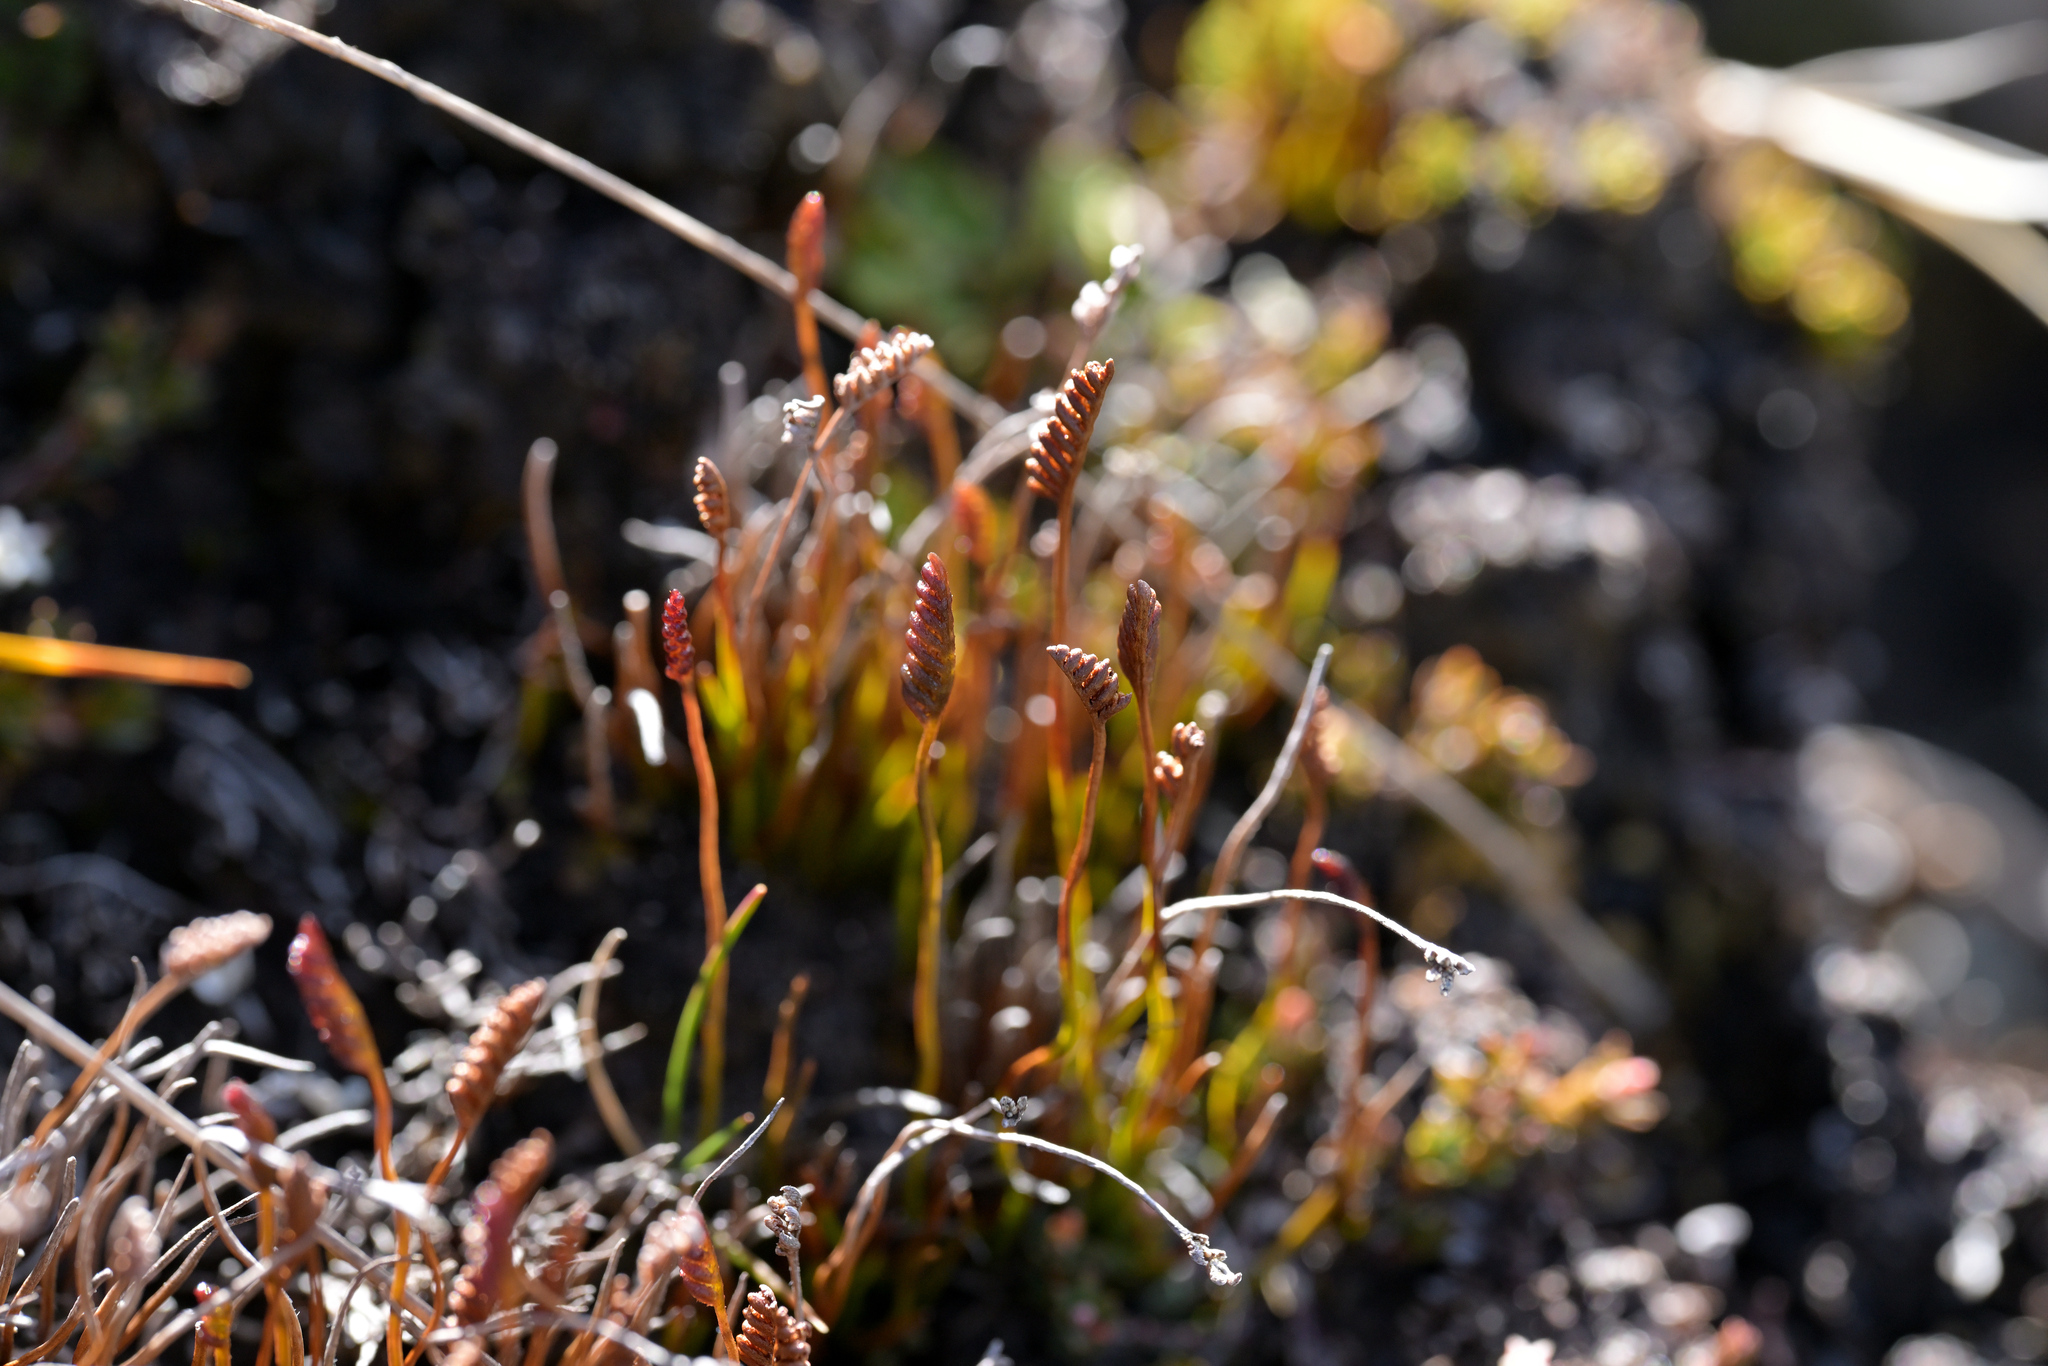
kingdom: Plantae
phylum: Tracheophyta
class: Polypodiopsida
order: Schizaeales
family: Schizaeaceae
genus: Microschizaea
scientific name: Microschizaea australis
